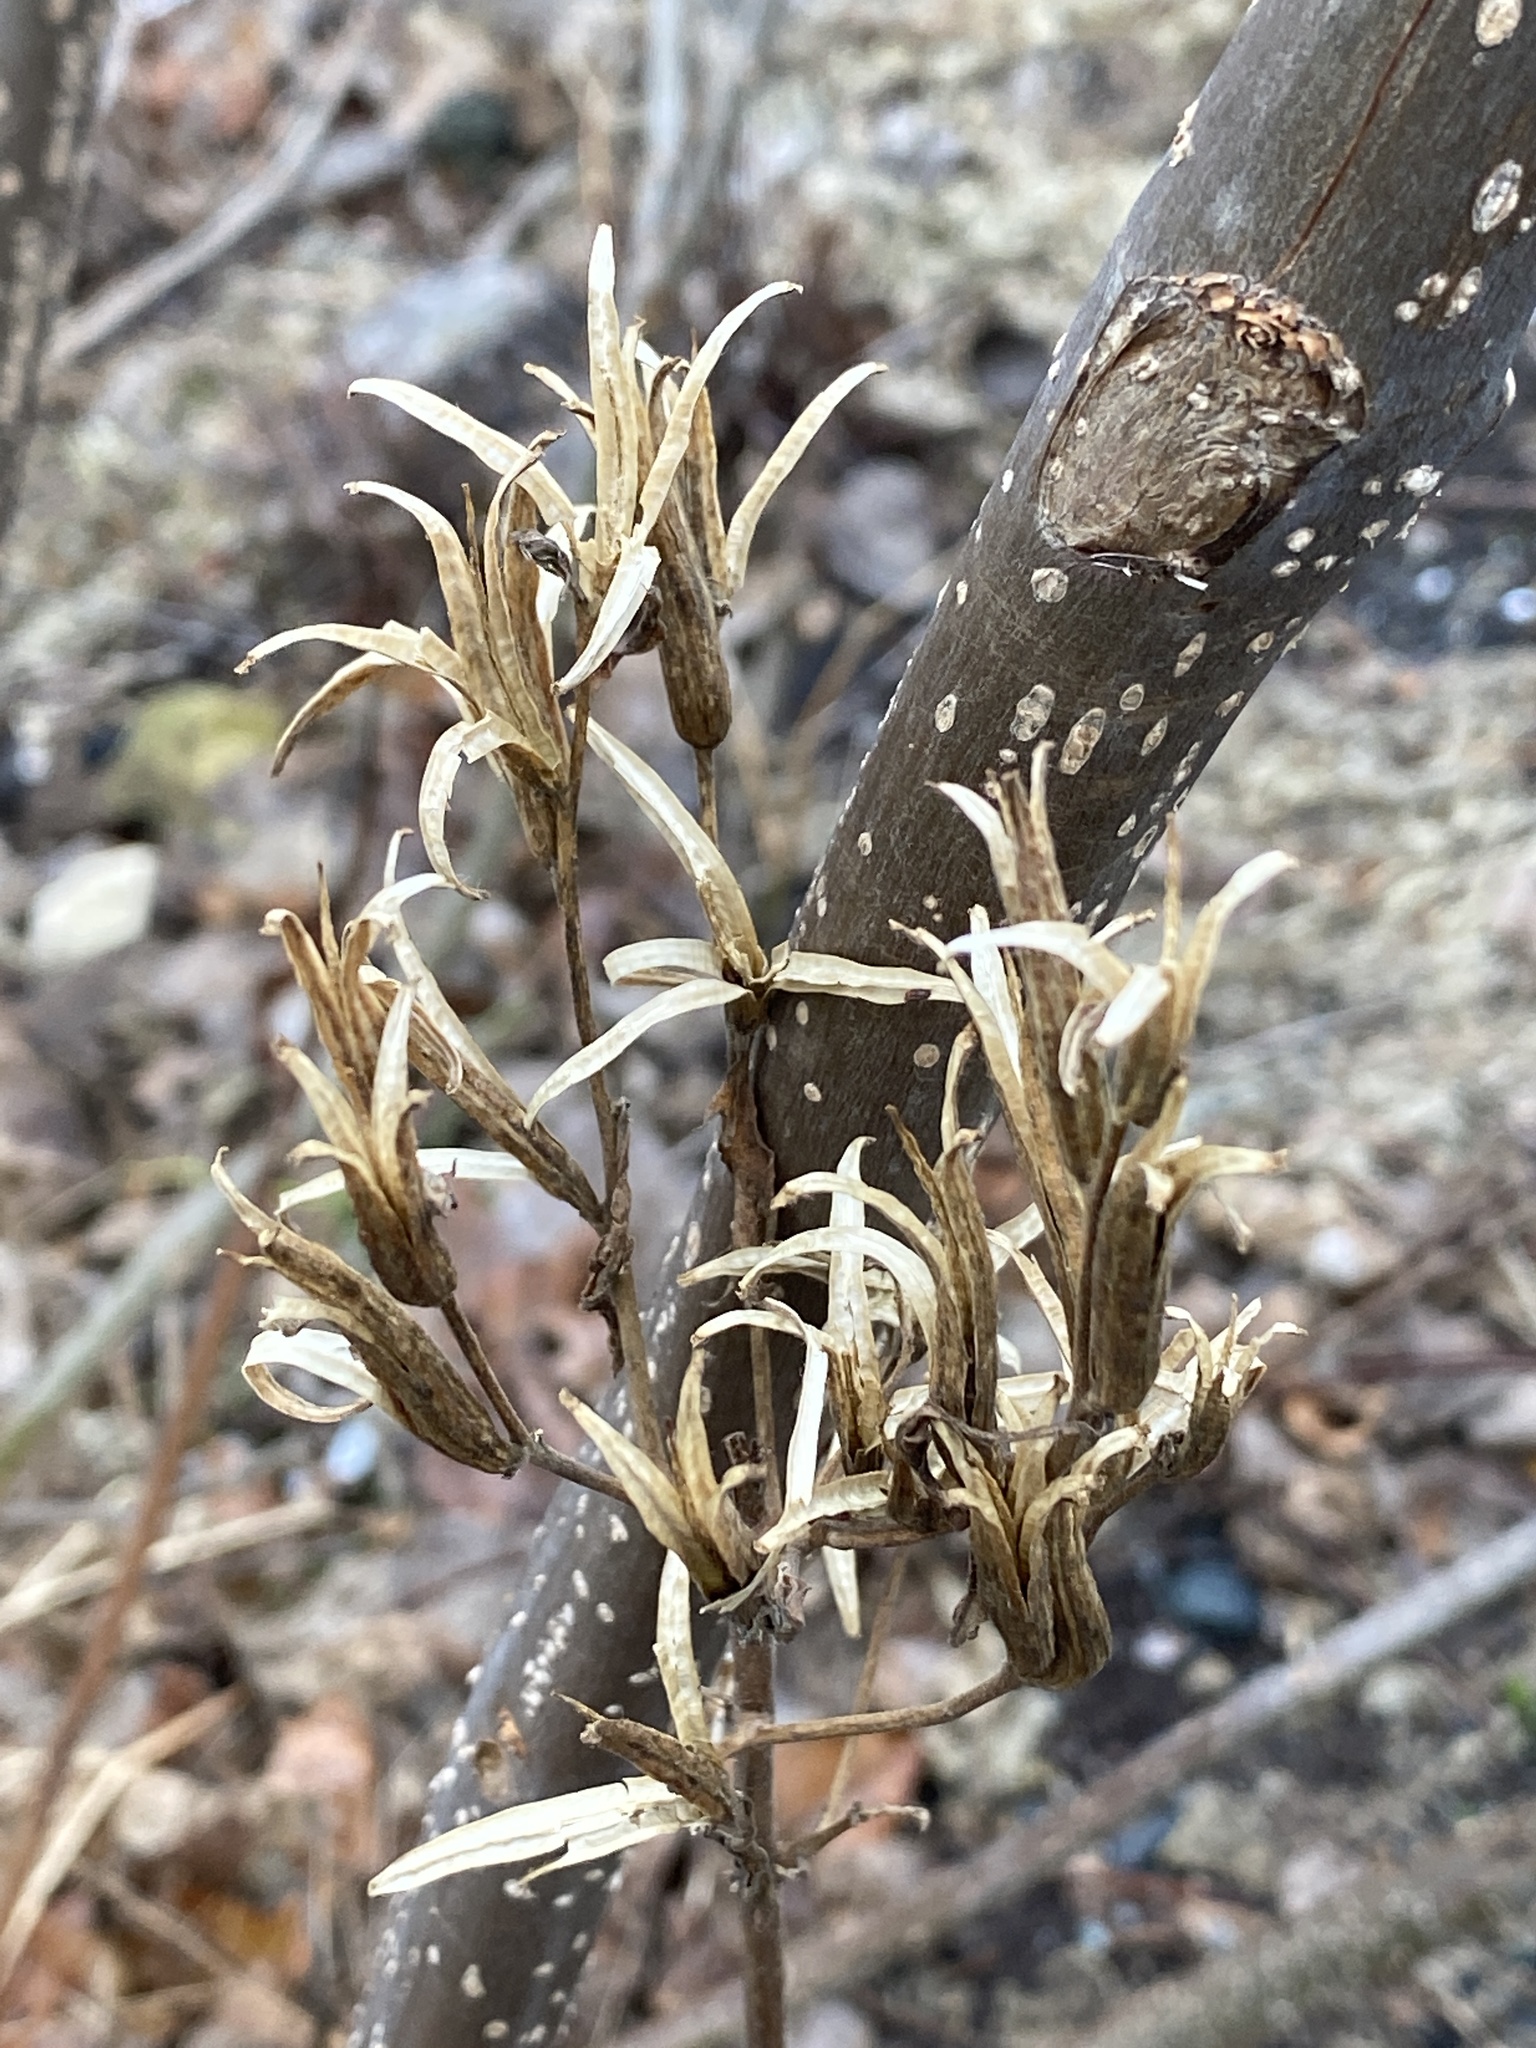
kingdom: Plantae
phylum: Tracheophyta
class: Magnoliopsida
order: Myrtales
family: Onagraceae
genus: Oenothera
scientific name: Oenothera biennis
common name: Common evening-primrose
